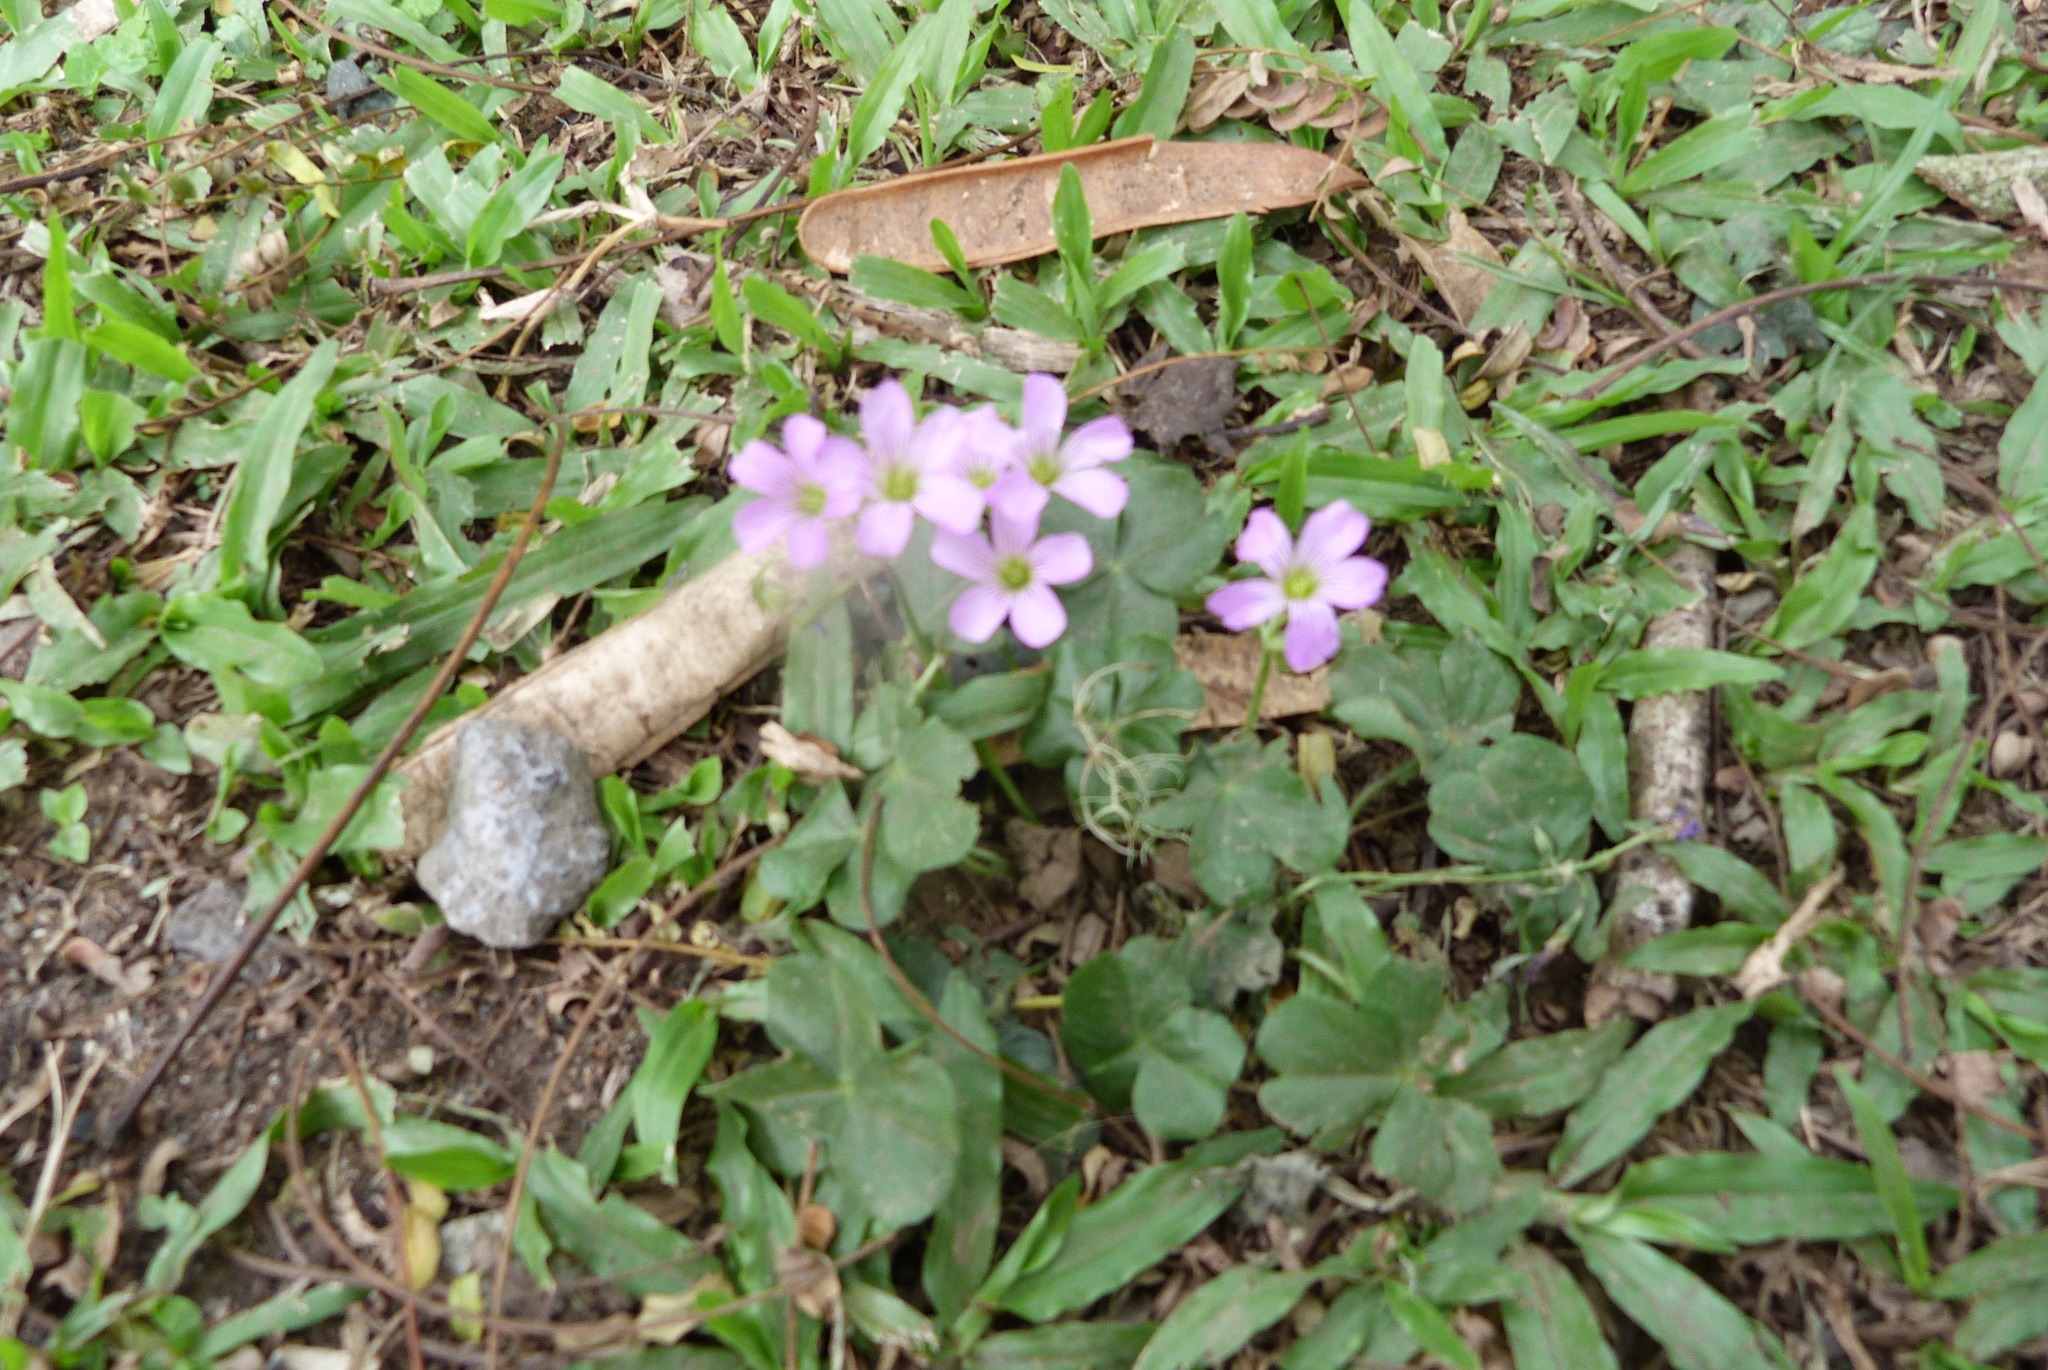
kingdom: Plantae
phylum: Tracheophyta
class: Magnoliopsida
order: Oxalidales
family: Oxalidaceae
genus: Oxalis
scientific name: Oxalis debilis
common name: Large-flowered pink-sorrel
